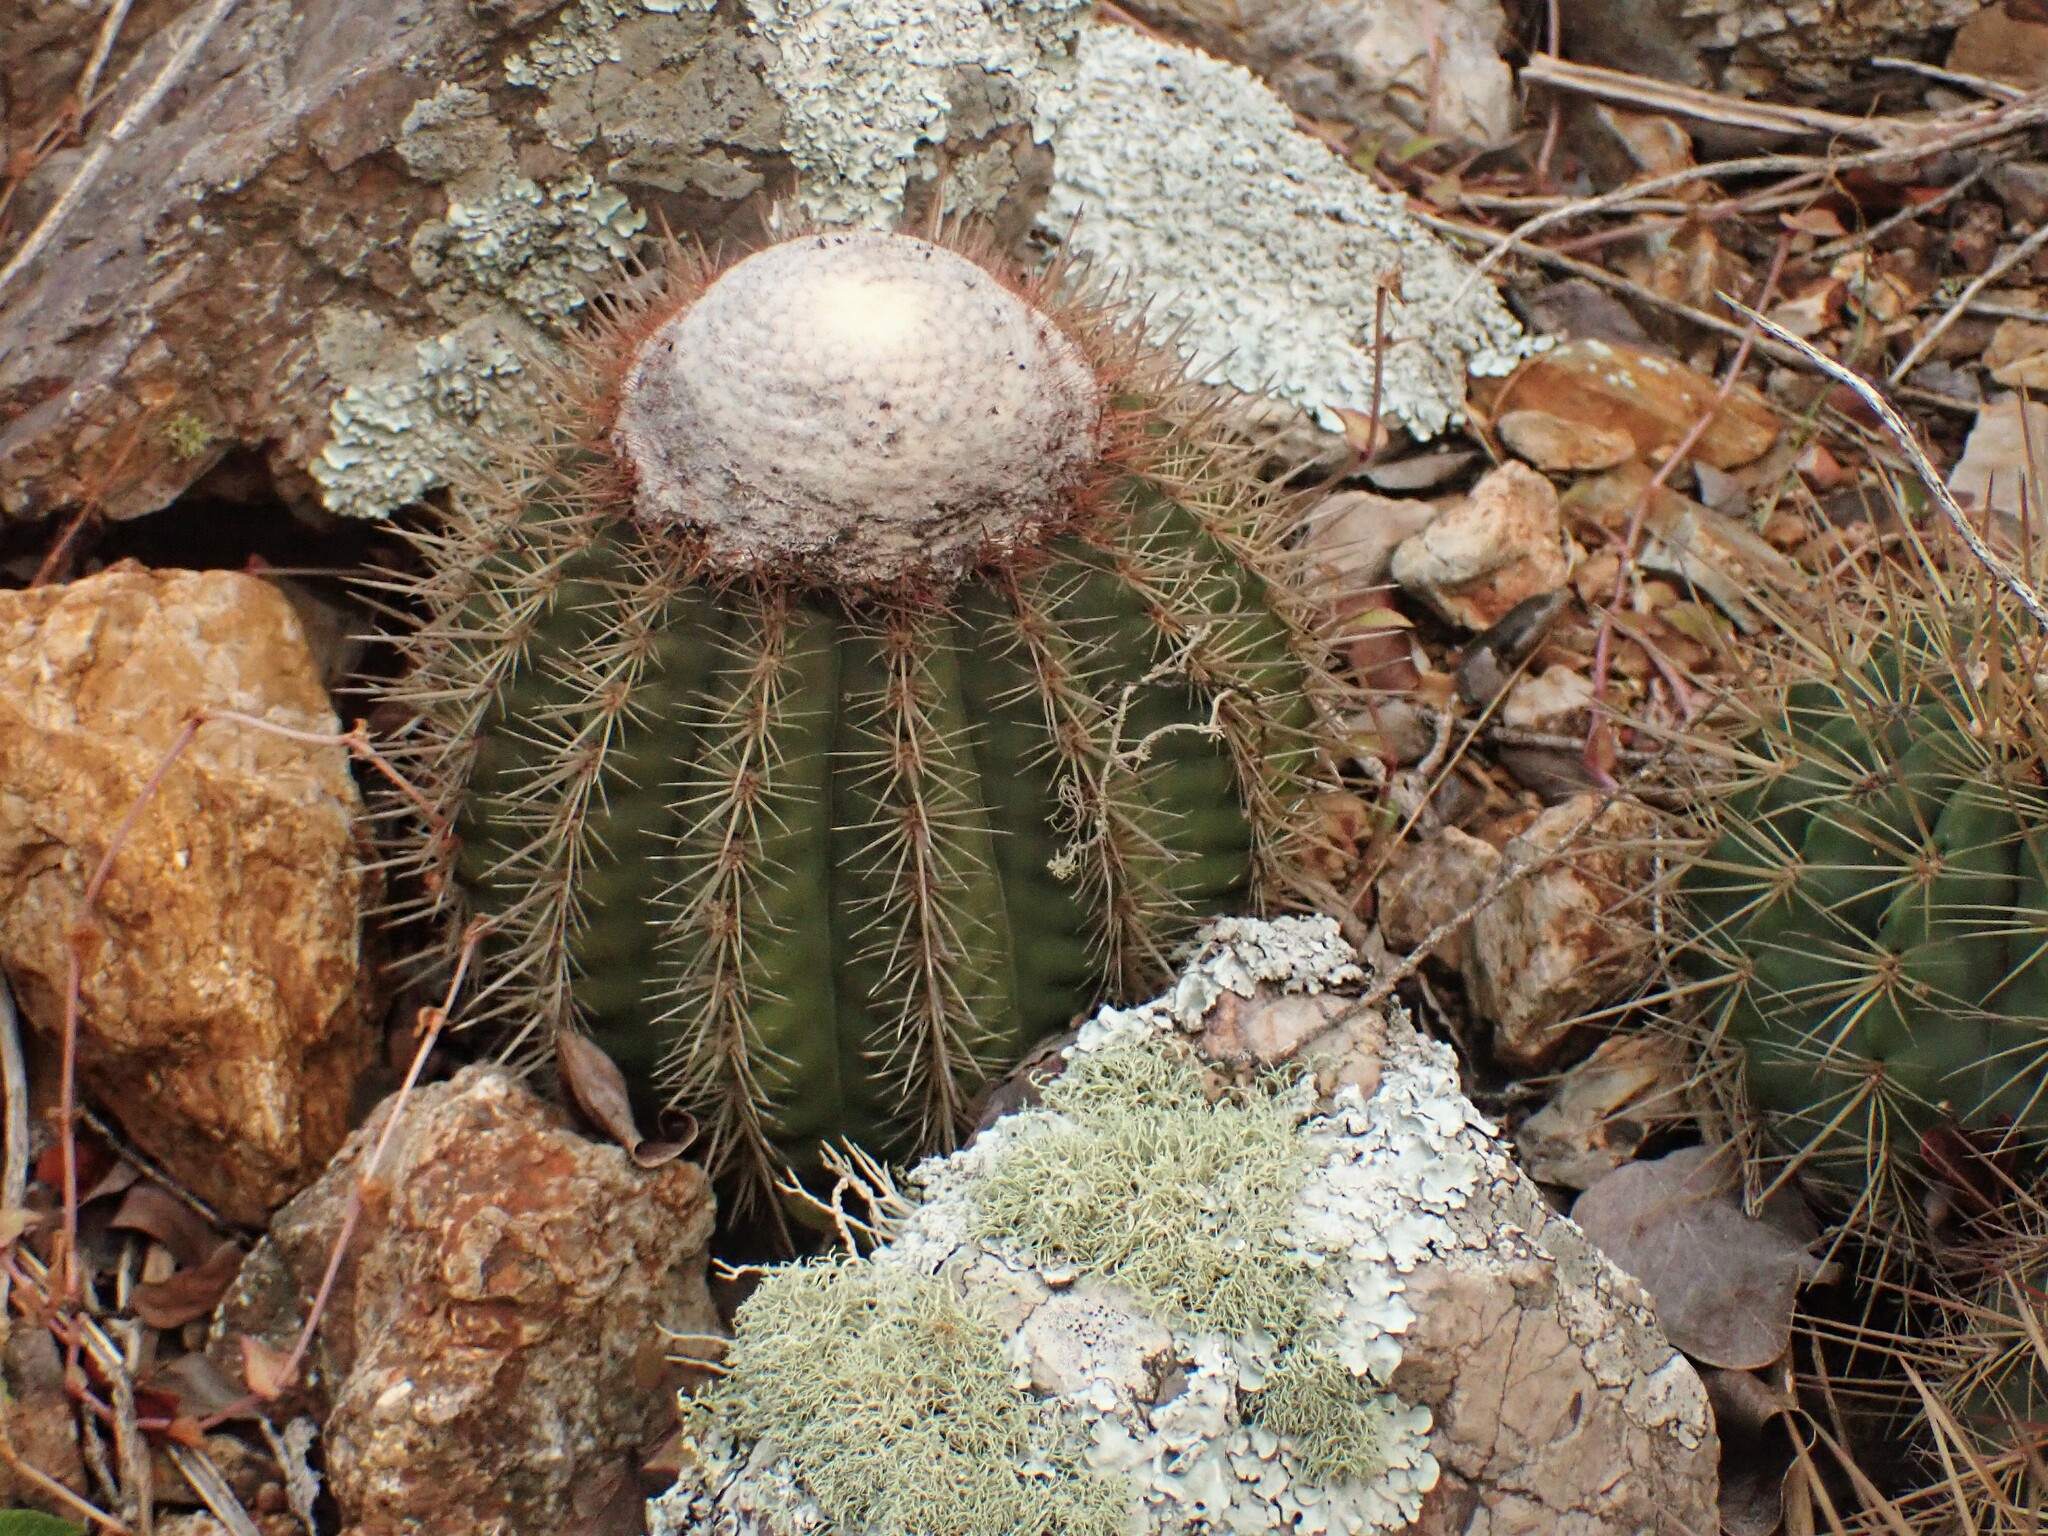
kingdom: Plantae
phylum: Tracheophyta
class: Magnoliopsida
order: Caryophyllales
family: Cactaceae
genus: Melocactus
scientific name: Melocactus macracanthos
